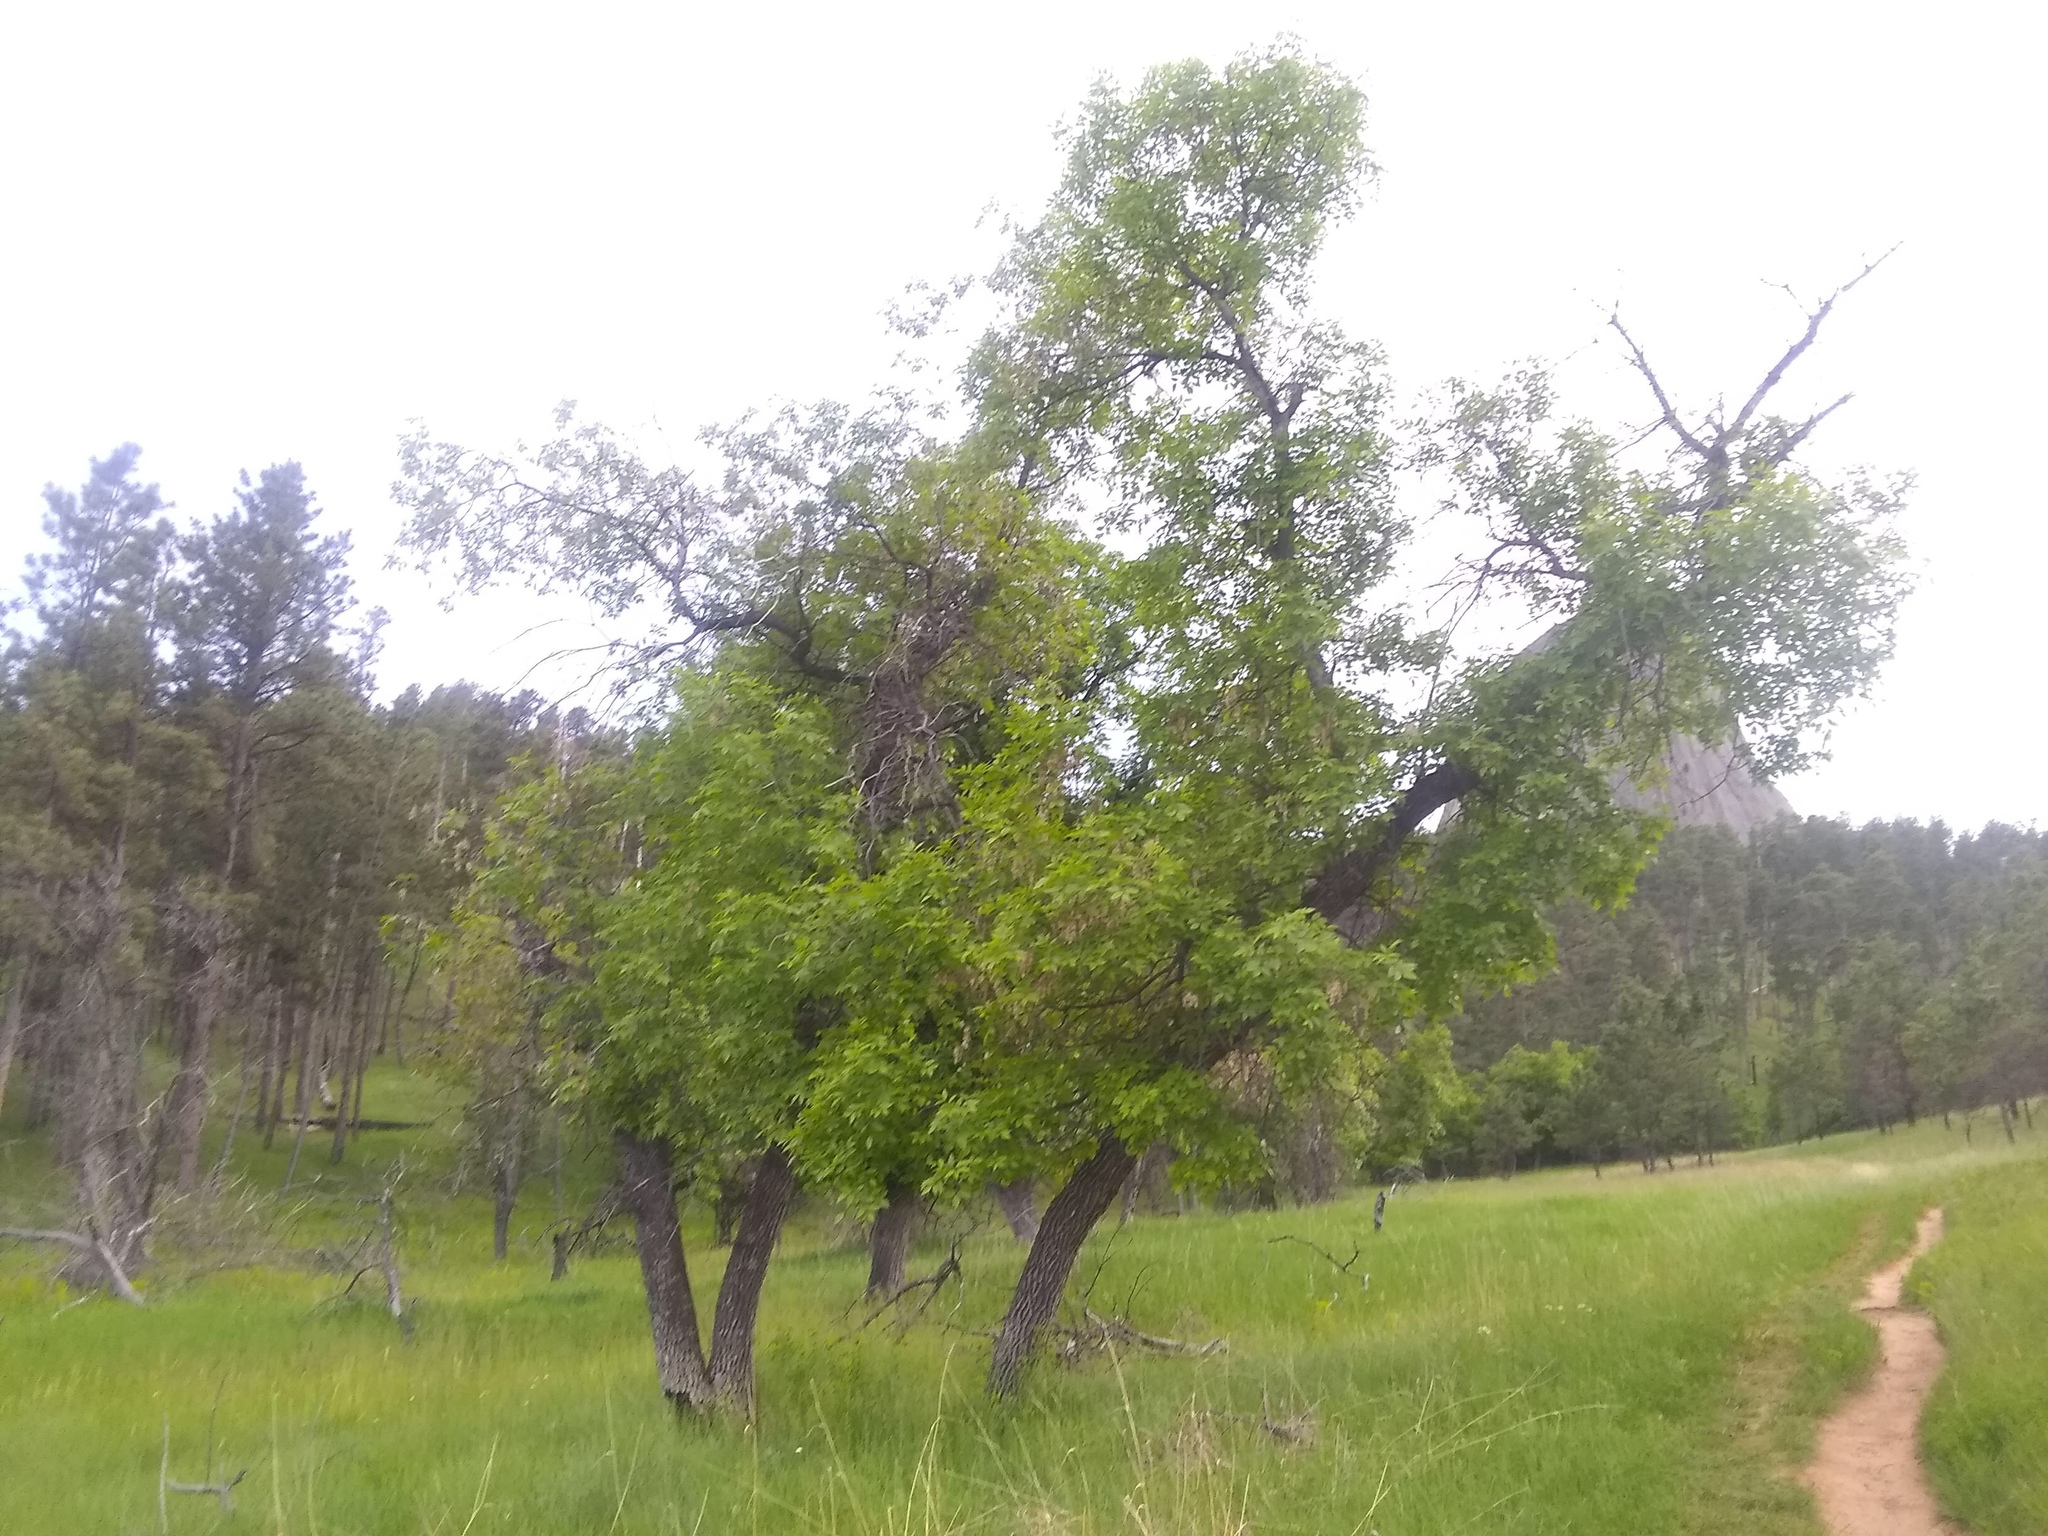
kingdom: Plantae
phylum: Tracheophyta
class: Magnoliopsida
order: Lamiales
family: Oleaceae
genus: Fraxinus
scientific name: Fraxinus pennsylvanica
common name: Green ash
